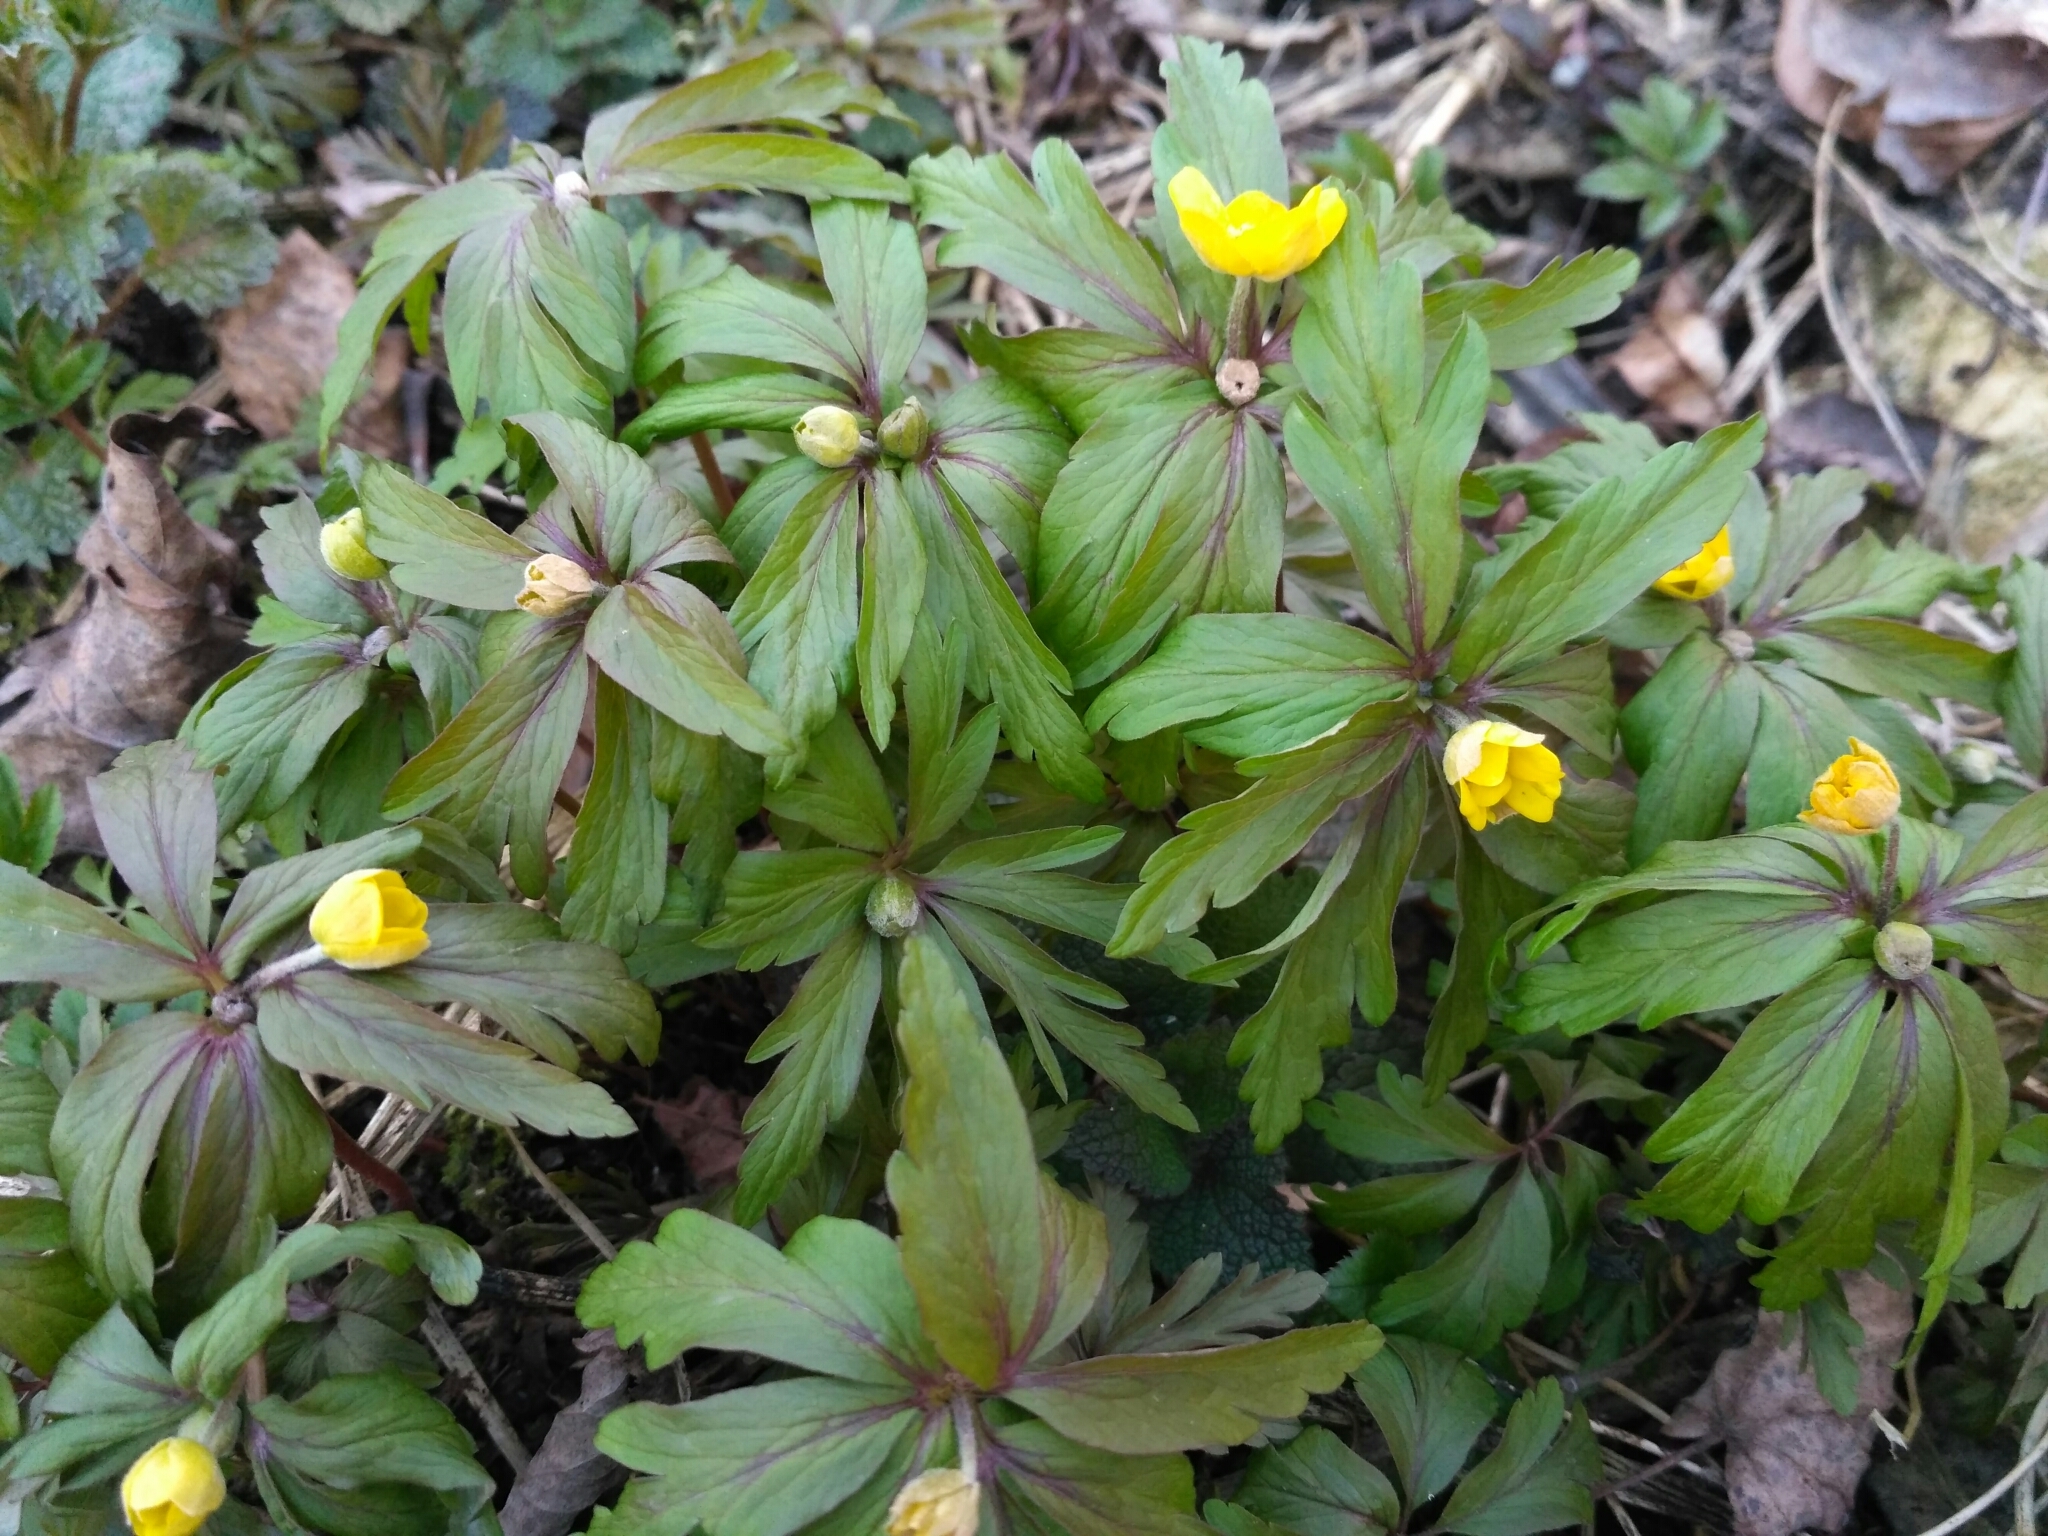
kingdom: Plantae
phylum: Tracheophyta
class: Magnoliopsida
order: Ranunculales
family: Ranunculaceae
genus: Anemone
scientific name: Anemone ranunculoides
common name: Yellow anemone
